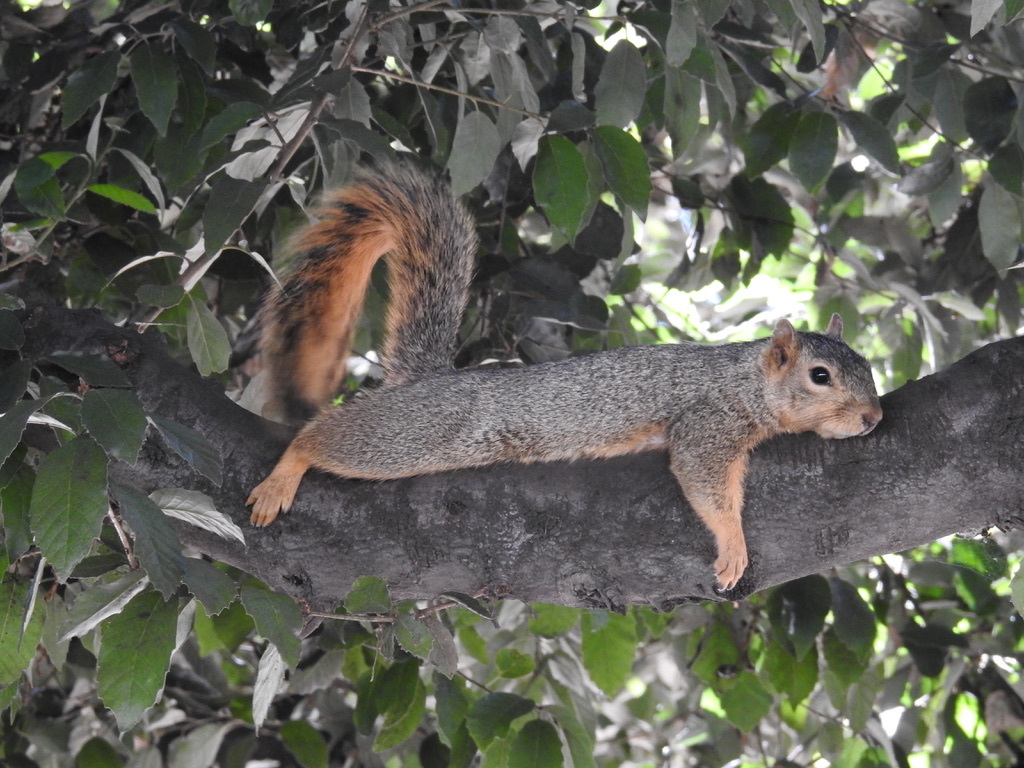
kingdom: Animalia
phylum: Chordata
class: Mammalia
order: Rodentia
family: Sciuridae
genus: Sciurus
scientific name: Sciurus niger
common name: Fox squirrel
